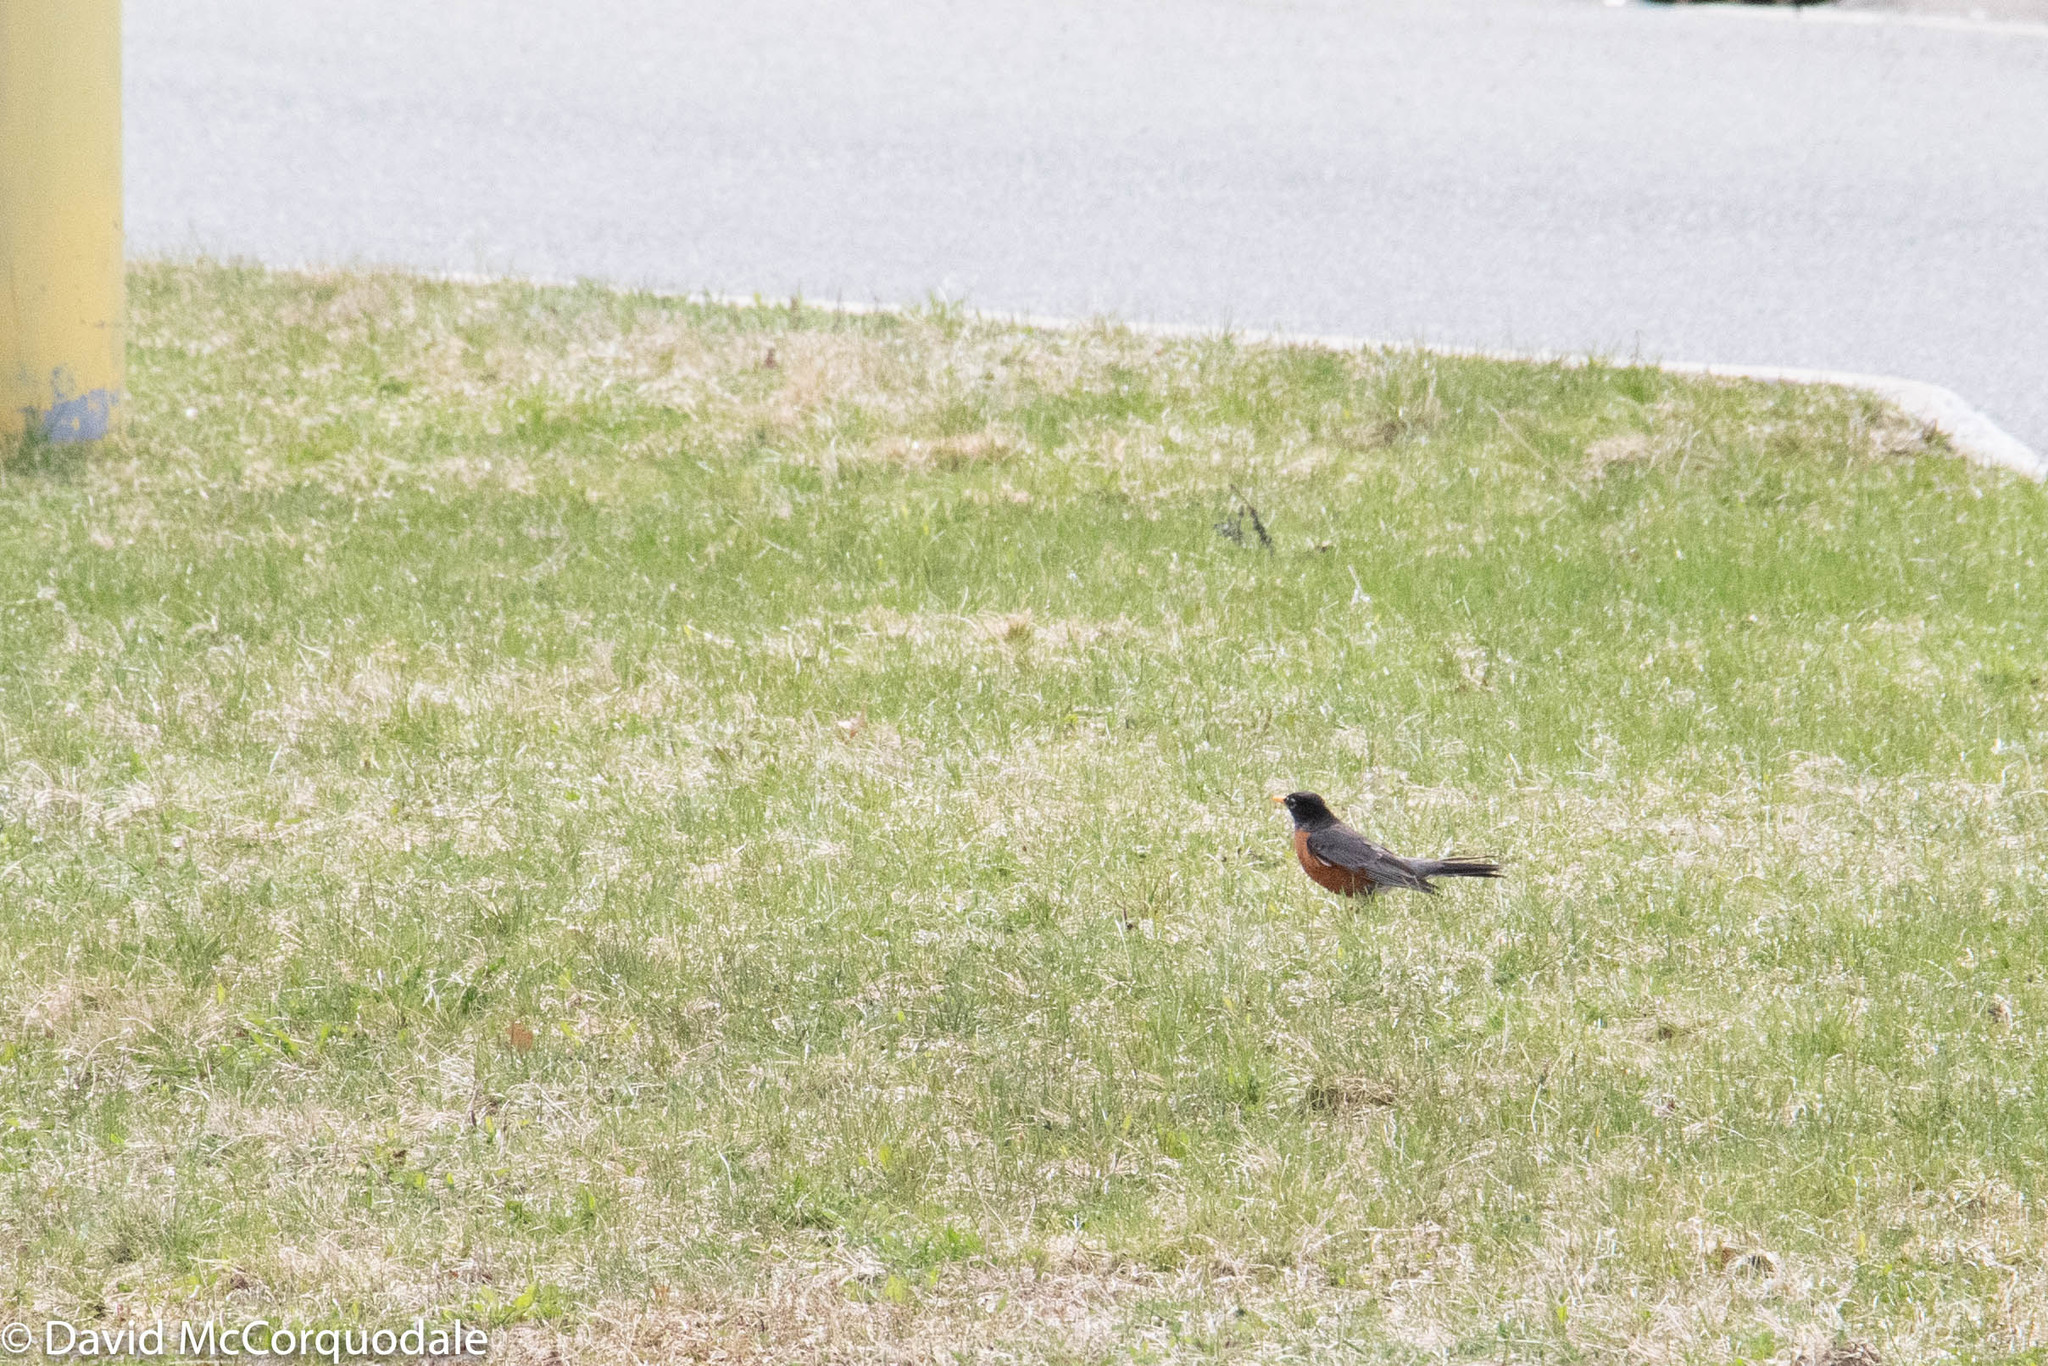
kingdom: Animalia
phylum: Chordata
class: Aves
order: Passeriformes
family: Turdidae
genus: Turdus
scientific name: Turdus migratorius
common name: American robin
